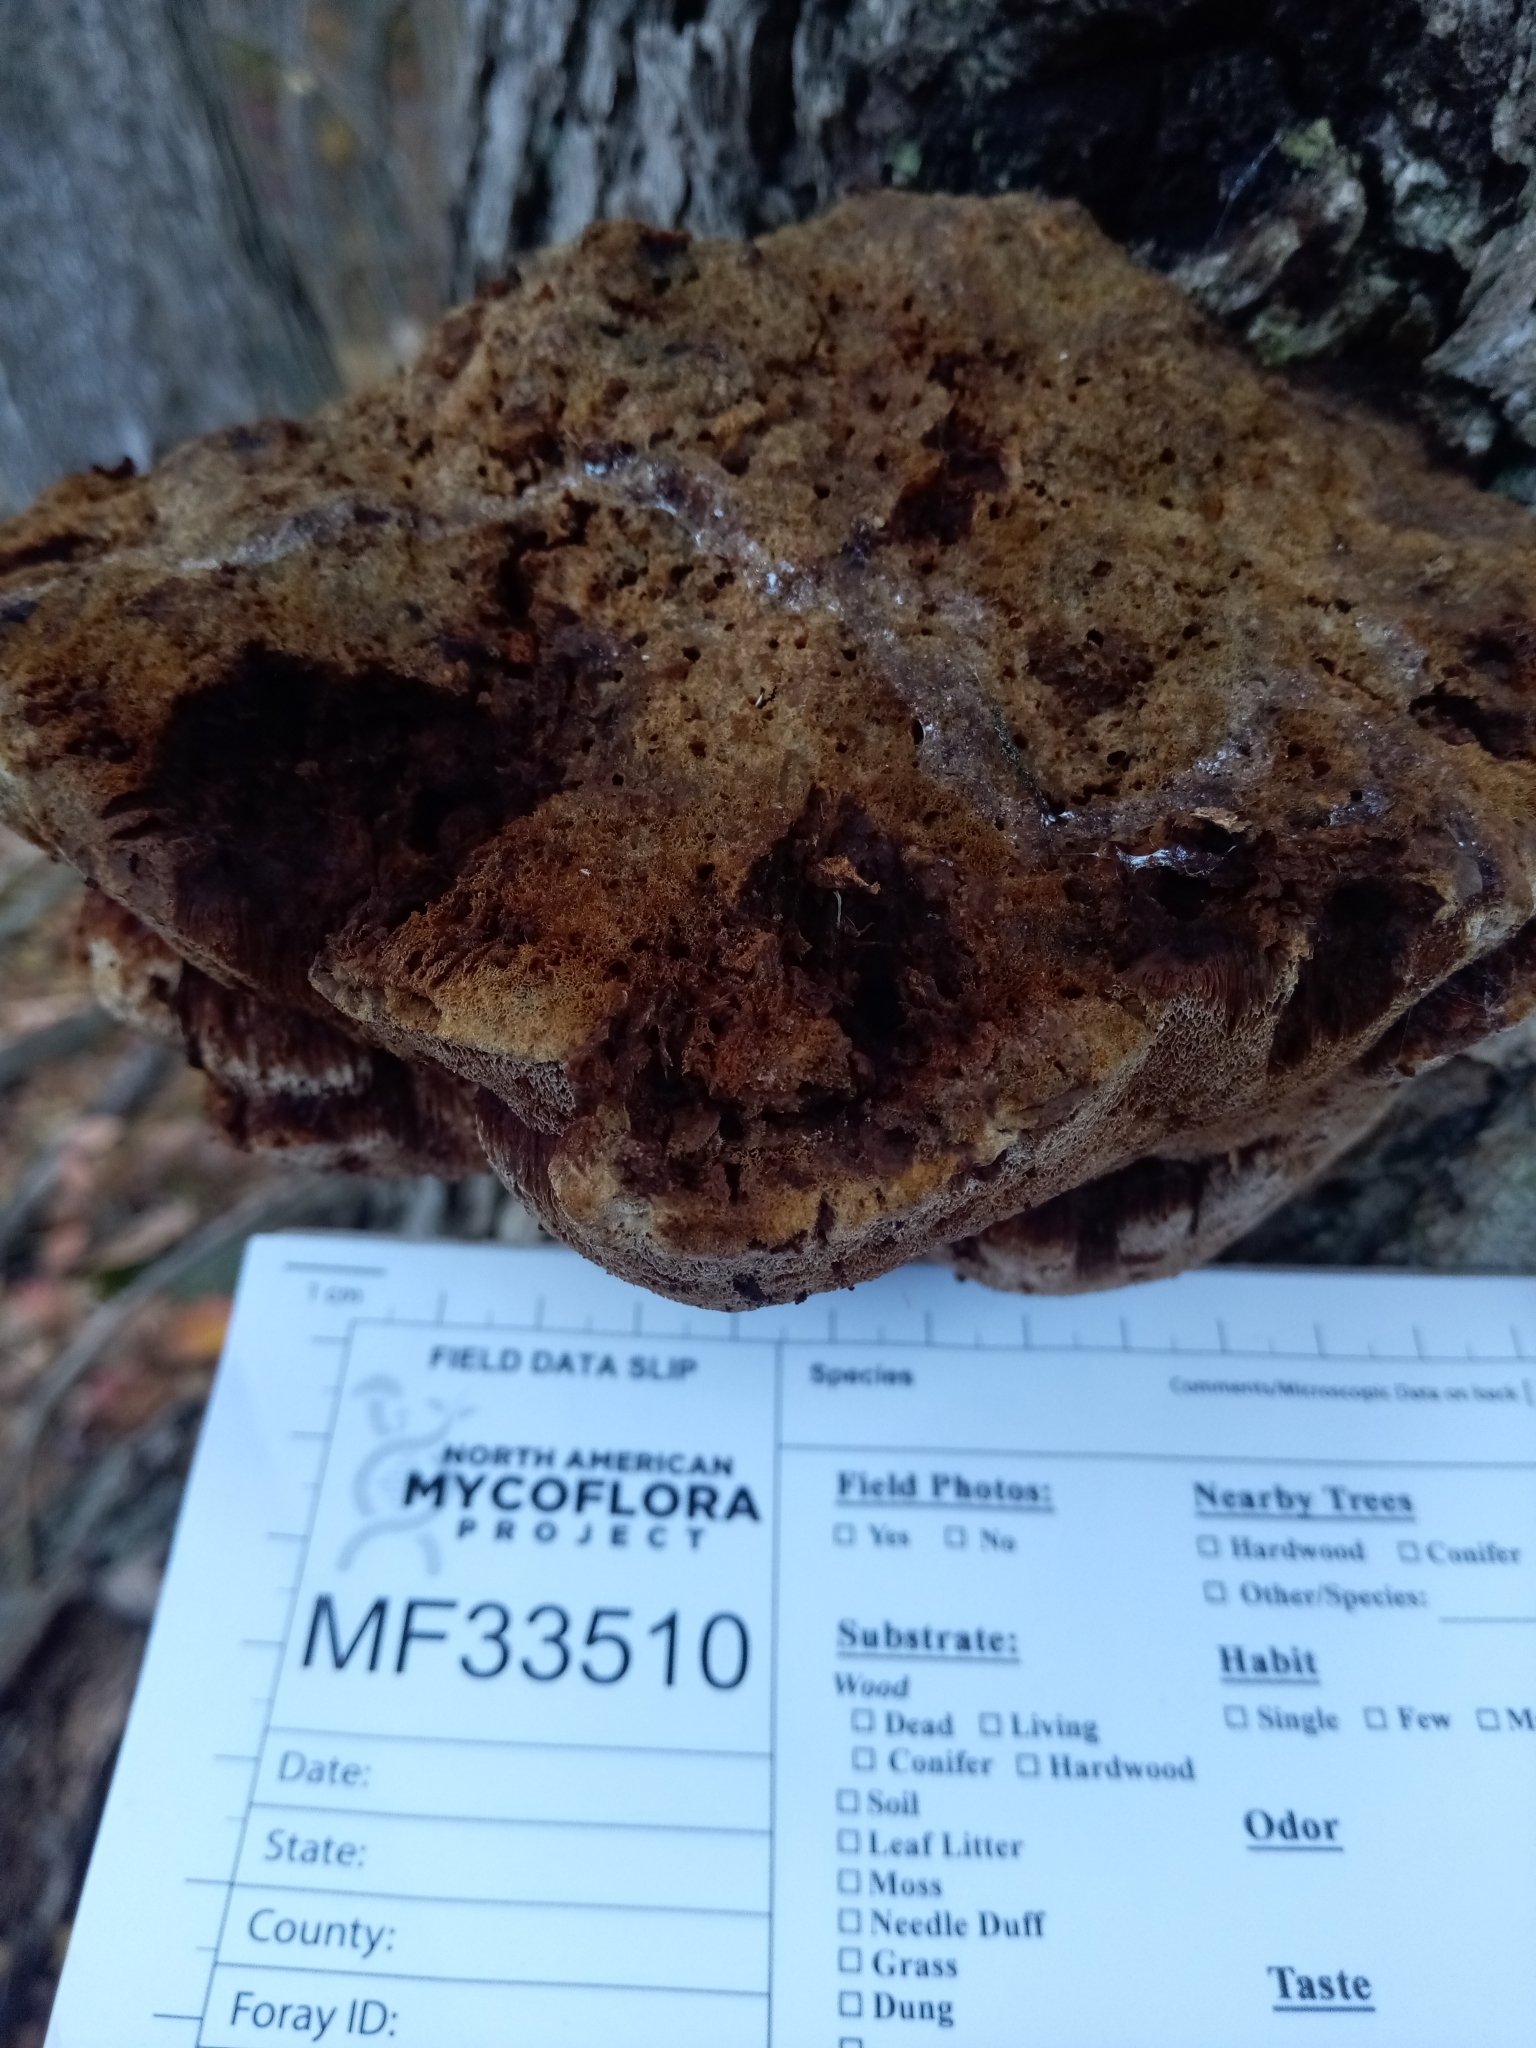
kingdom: Fungi
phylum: Basidiomycota
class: Agaricomycetes
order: Hymenochaetales
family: Hymenochaetaceae
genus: Inonotus
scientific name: Inonotus hispidus
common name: Shaggy bracket
